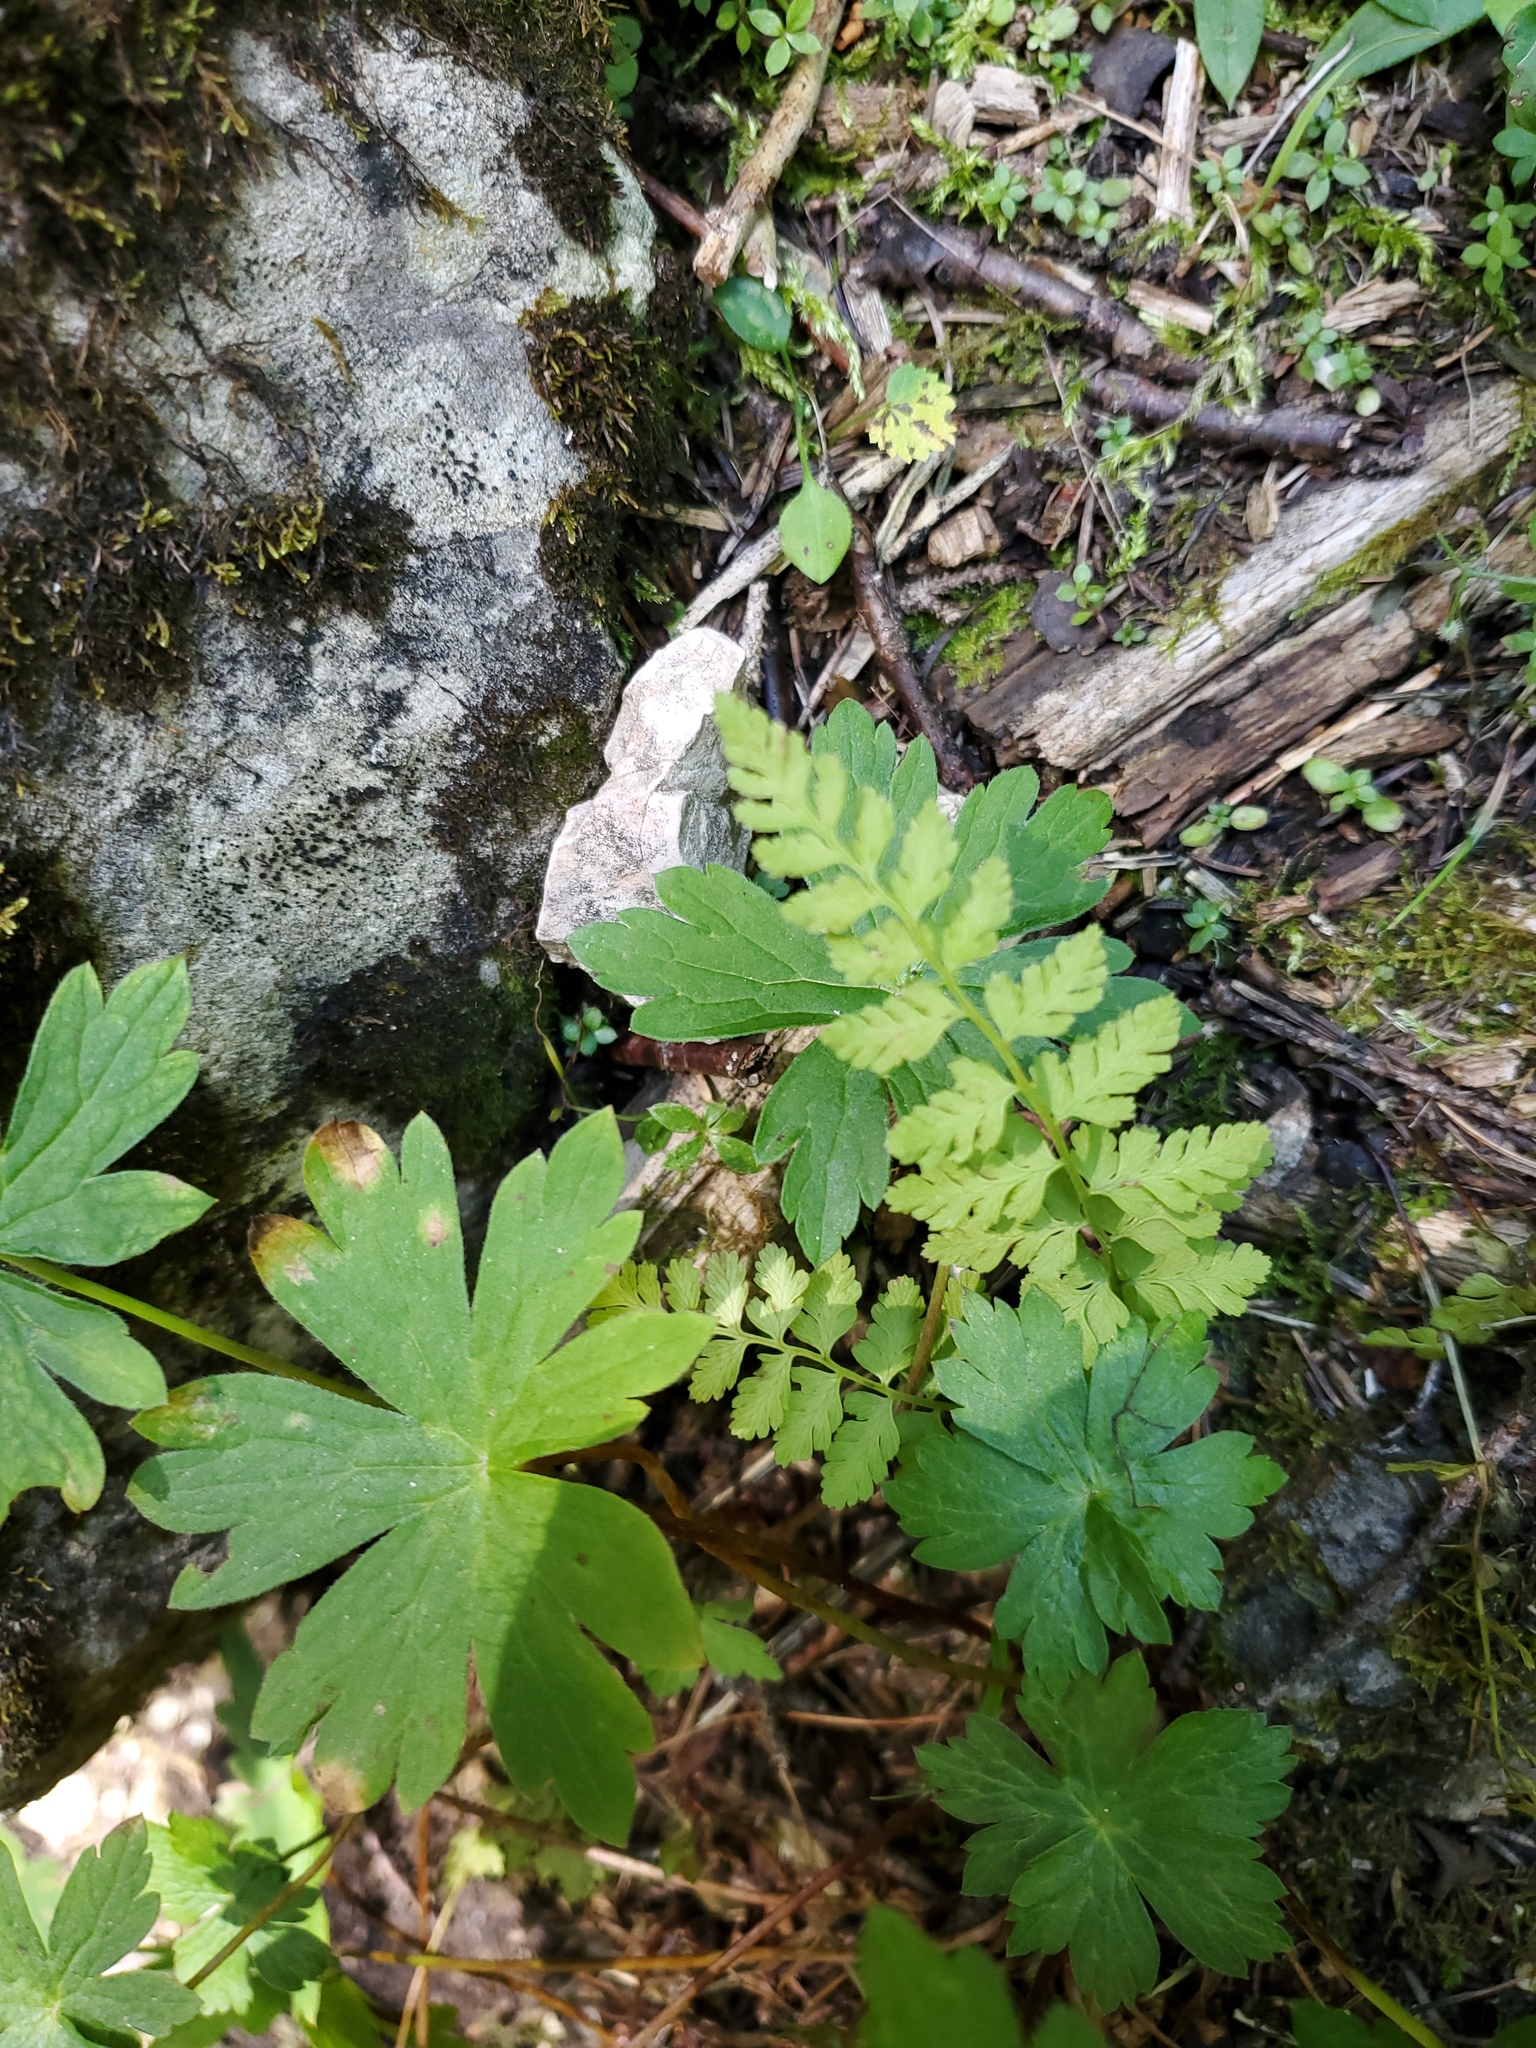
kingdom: Plantae
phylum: Tracheophyta
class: Polypodiopsida
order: Polypodiales
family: Cystopteridaceae
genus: Cystopteris
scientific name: Cystopteris fragilis
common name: Brittle bladder fern
